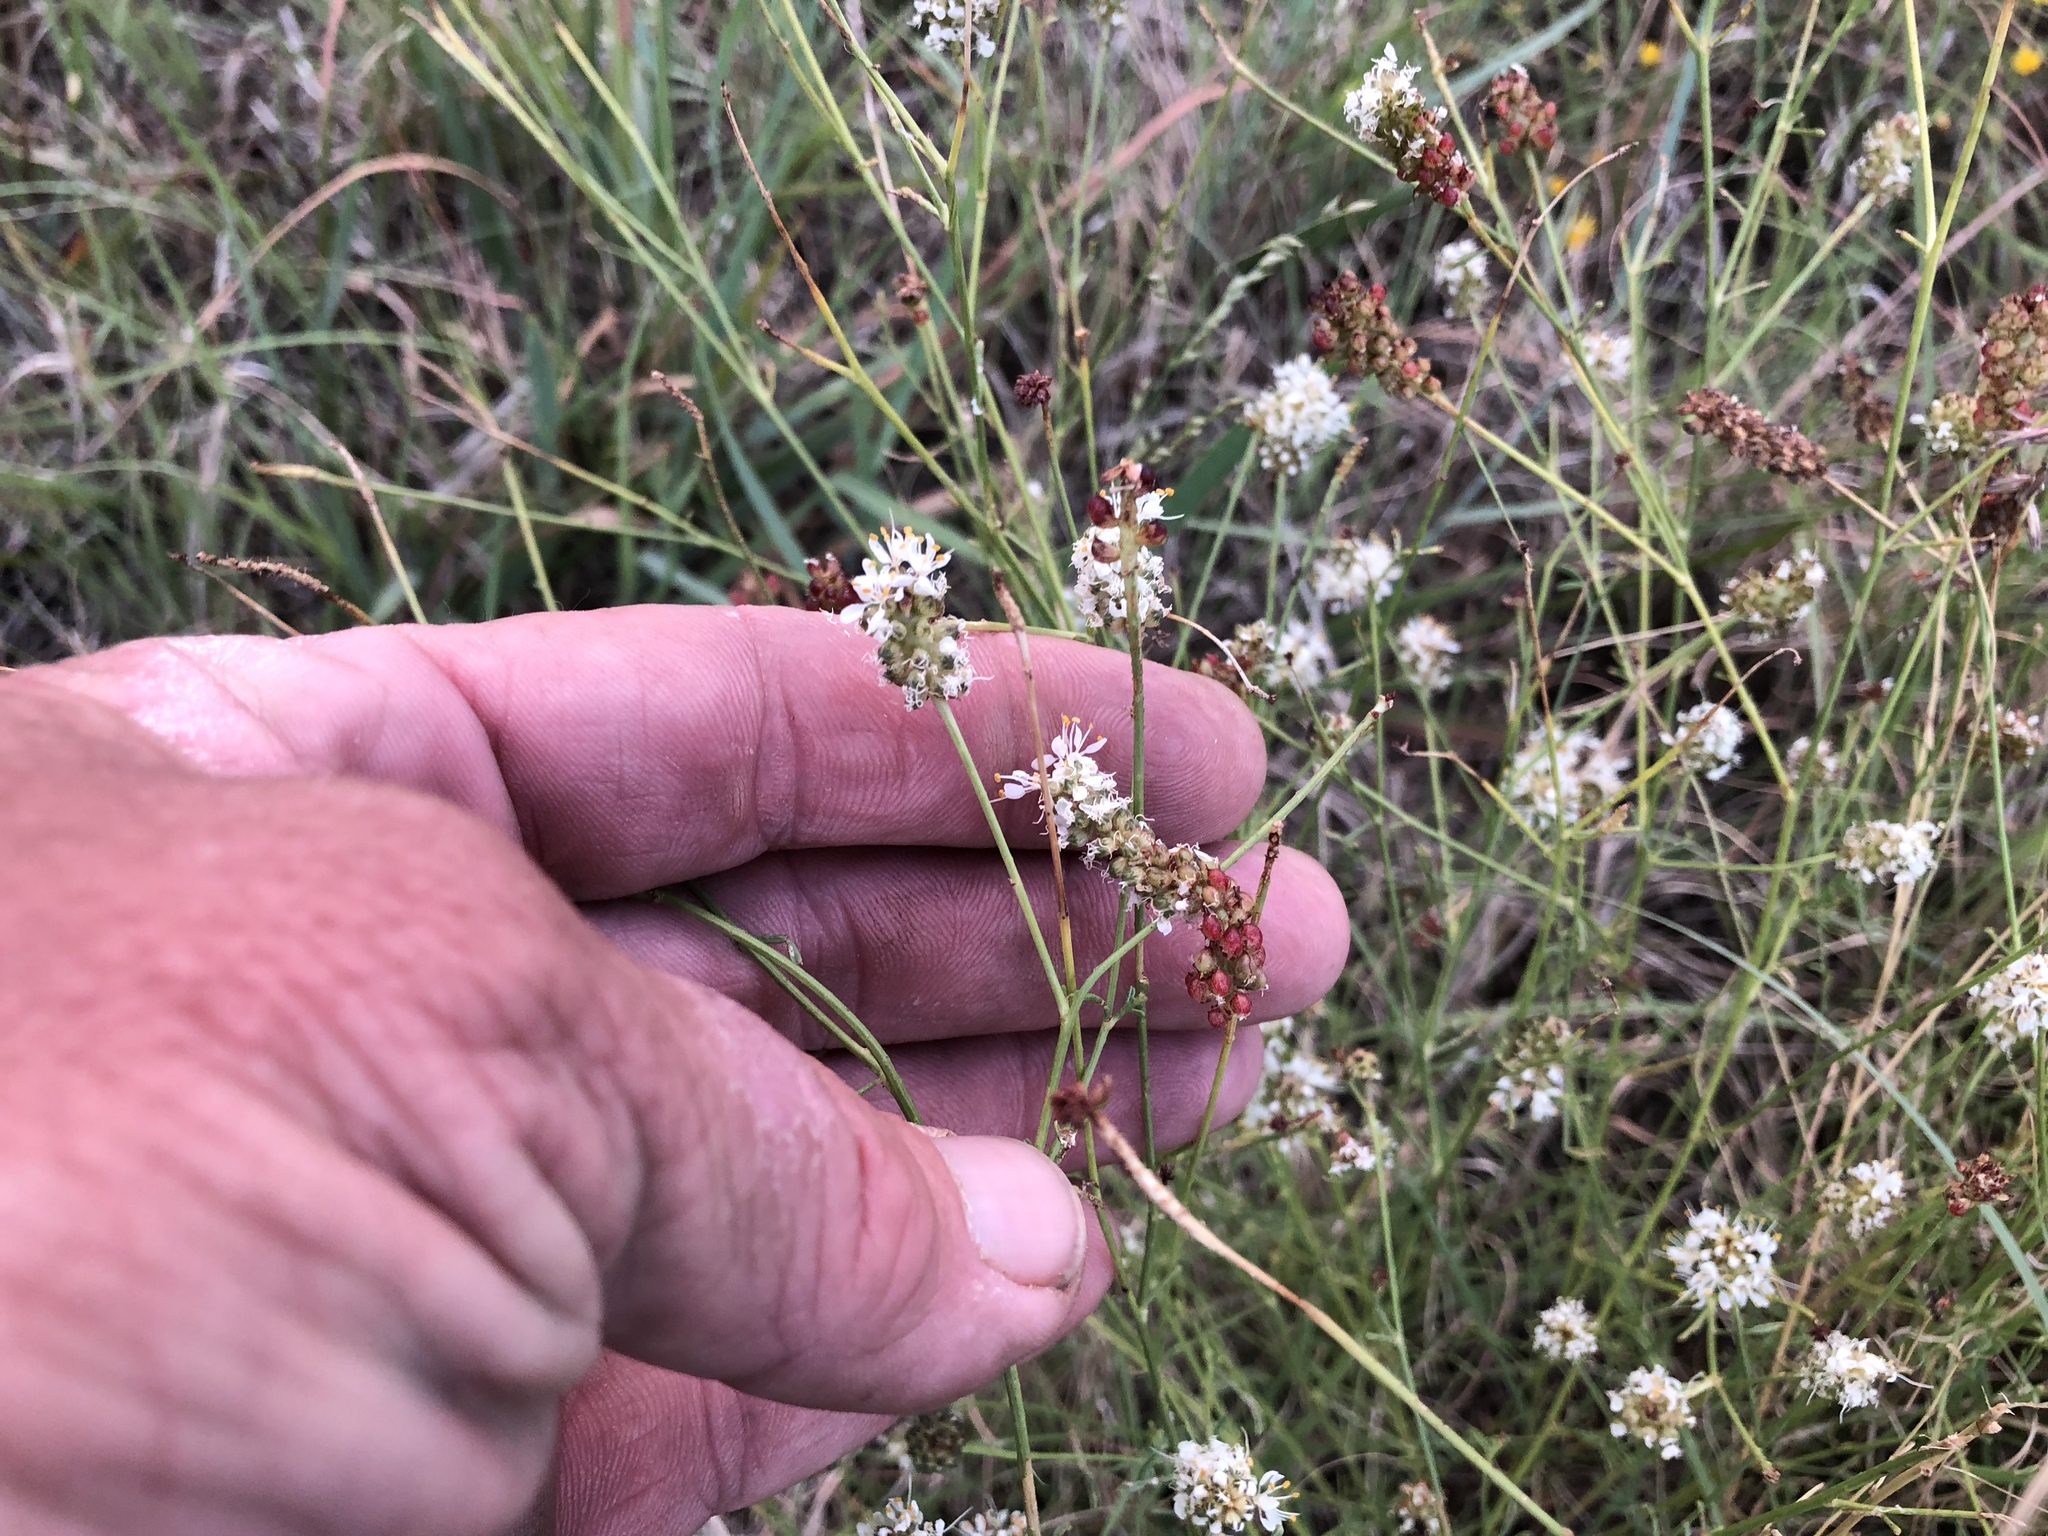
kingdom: Plantae
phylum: Tracheophyta
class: Magnoliopsida
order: Fabales
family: Fabaceae
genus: Dalea
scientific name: Dalea candida
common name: White prairie-clover
